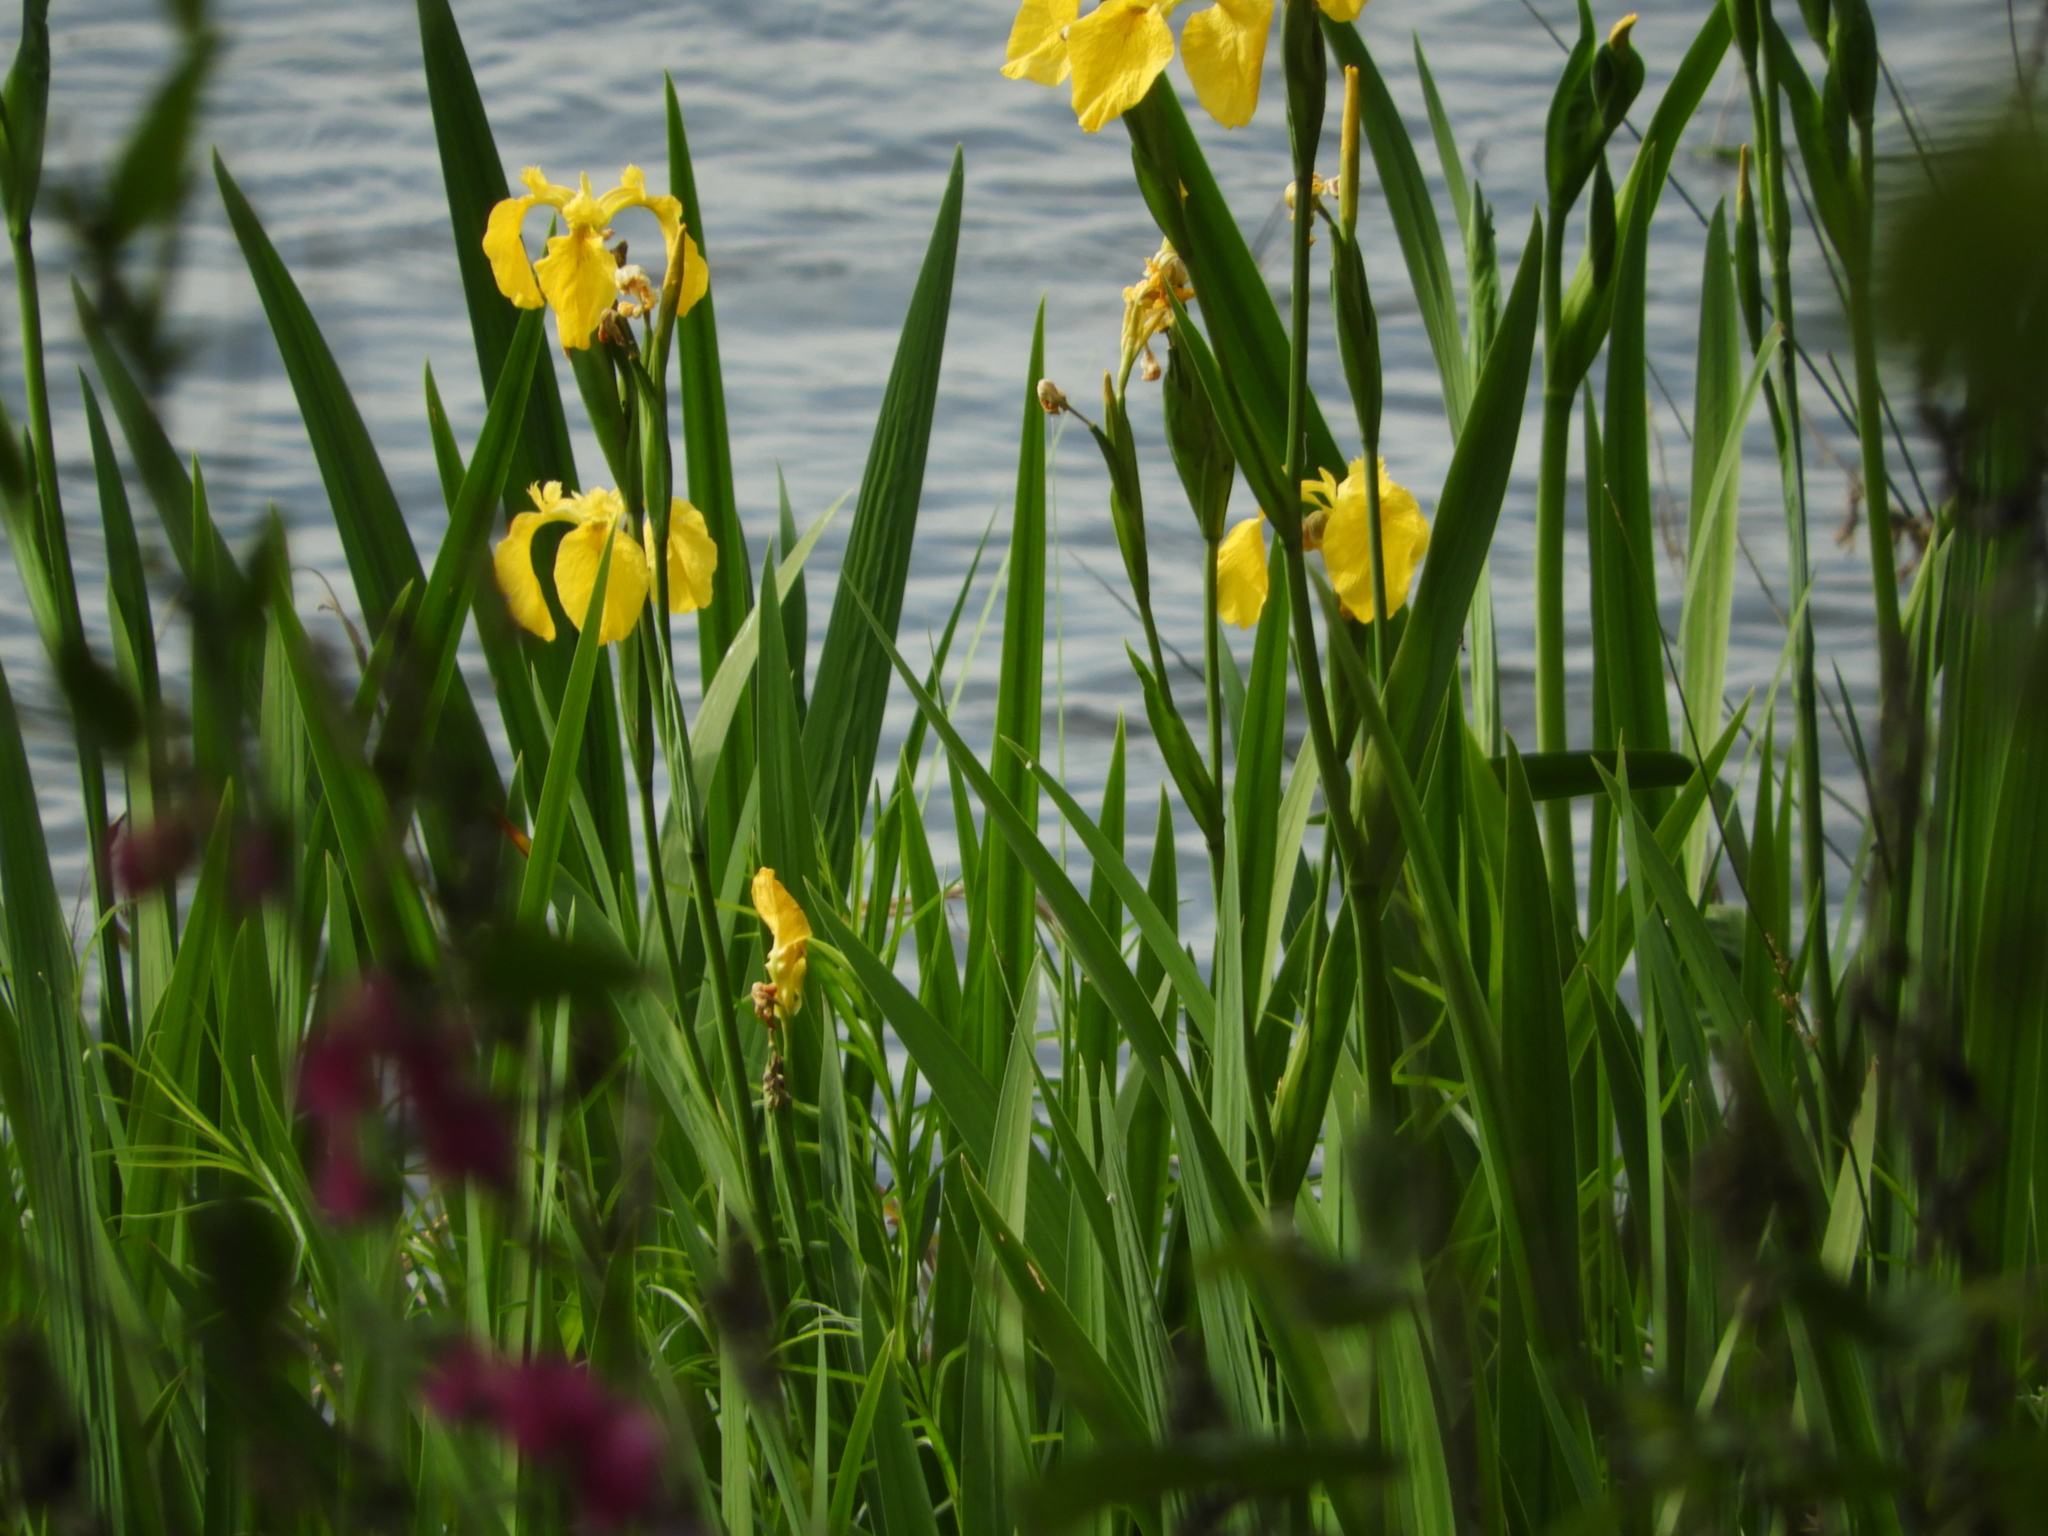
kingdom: Plantae
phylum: Tracheophyta
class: Liliopsida
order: Asparagales
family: Iridaceae
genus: Iris
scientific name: Iris pseudacorus
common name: Yellow flag
